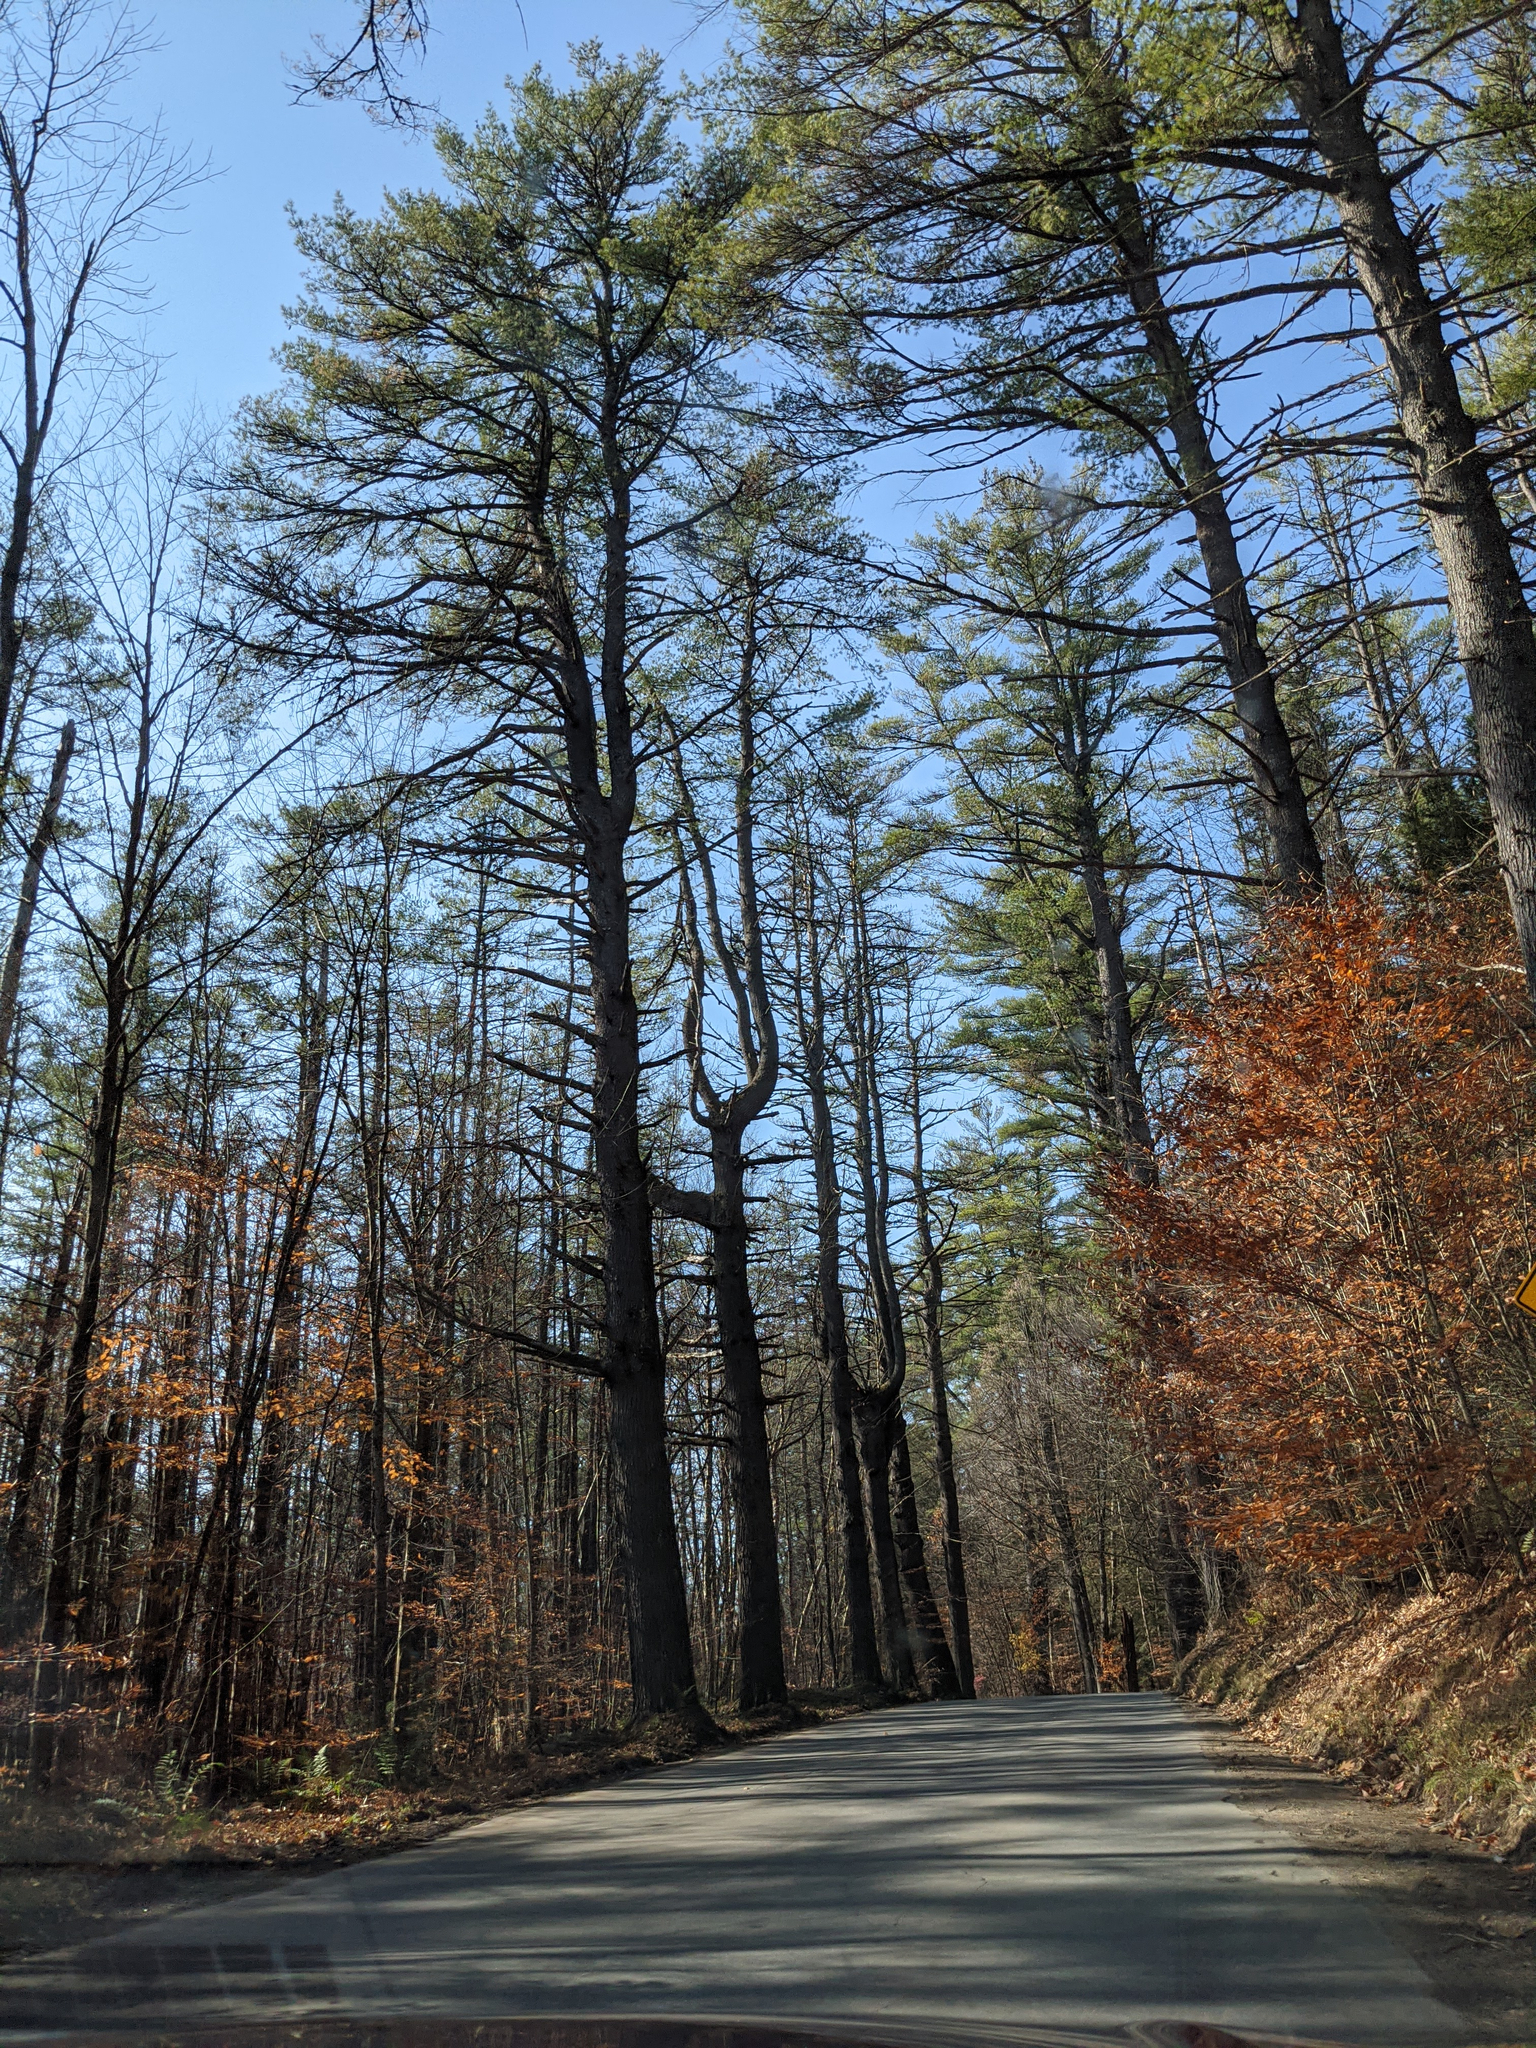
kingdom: Plantae
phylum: Tracheophyta
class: Pinopsida
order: Pinales
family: Pinaceae
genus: Pinus
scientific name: Pinus strobus
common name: Weymouth pine
